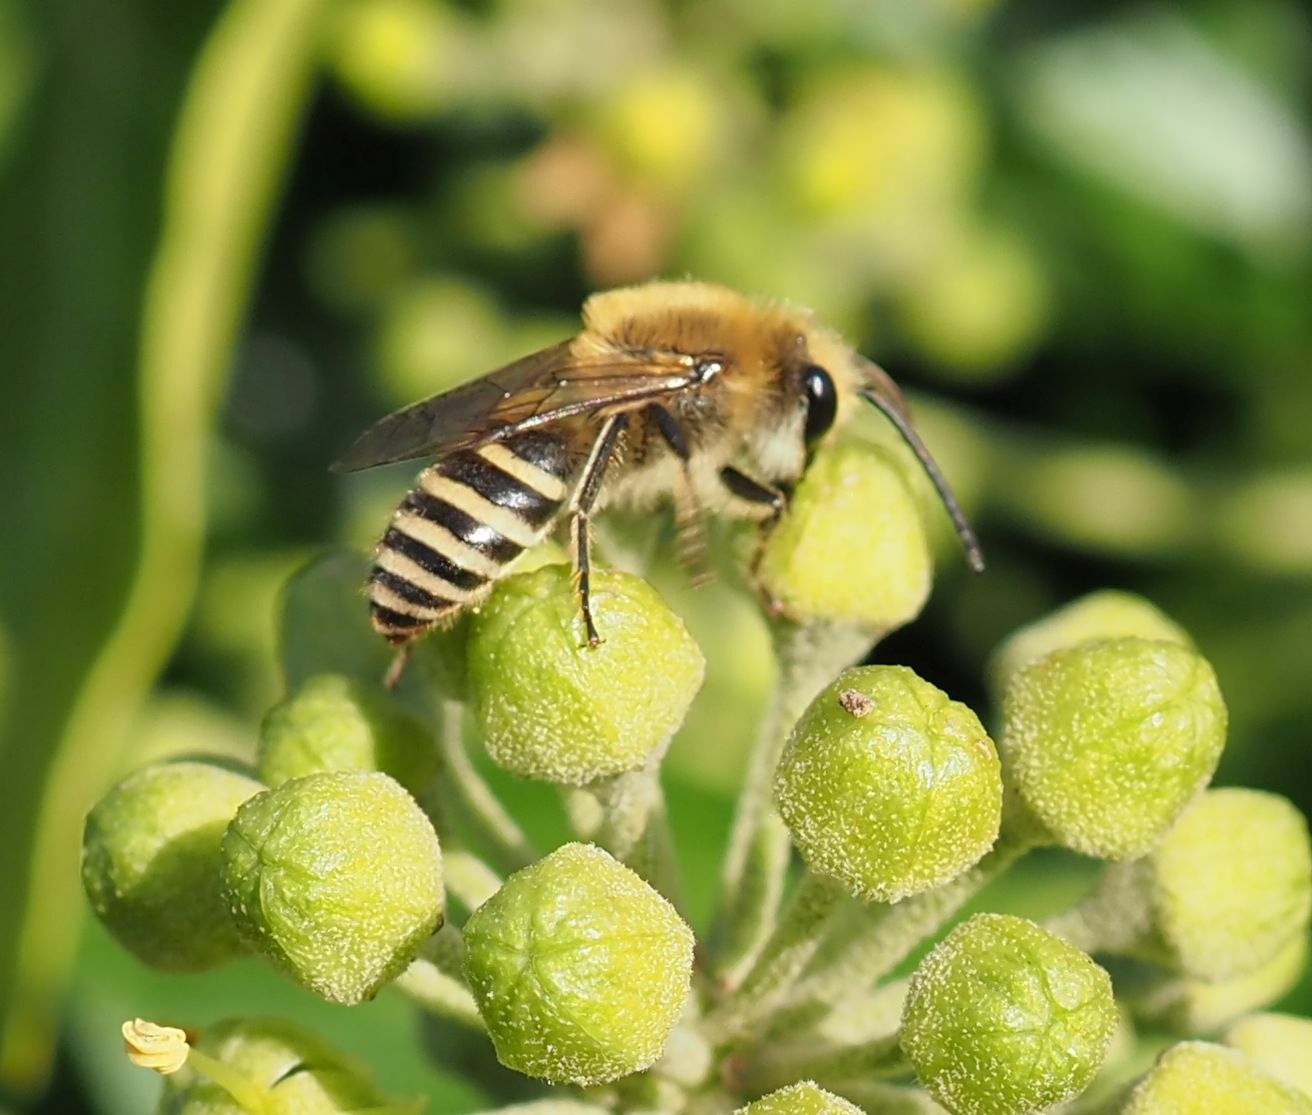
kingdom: Animalia
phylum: Arthropoda
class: Insecta
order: Hymenoptera
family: Colletidae
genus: Colletes
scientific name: Colletes hederae
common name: Ivy bee
